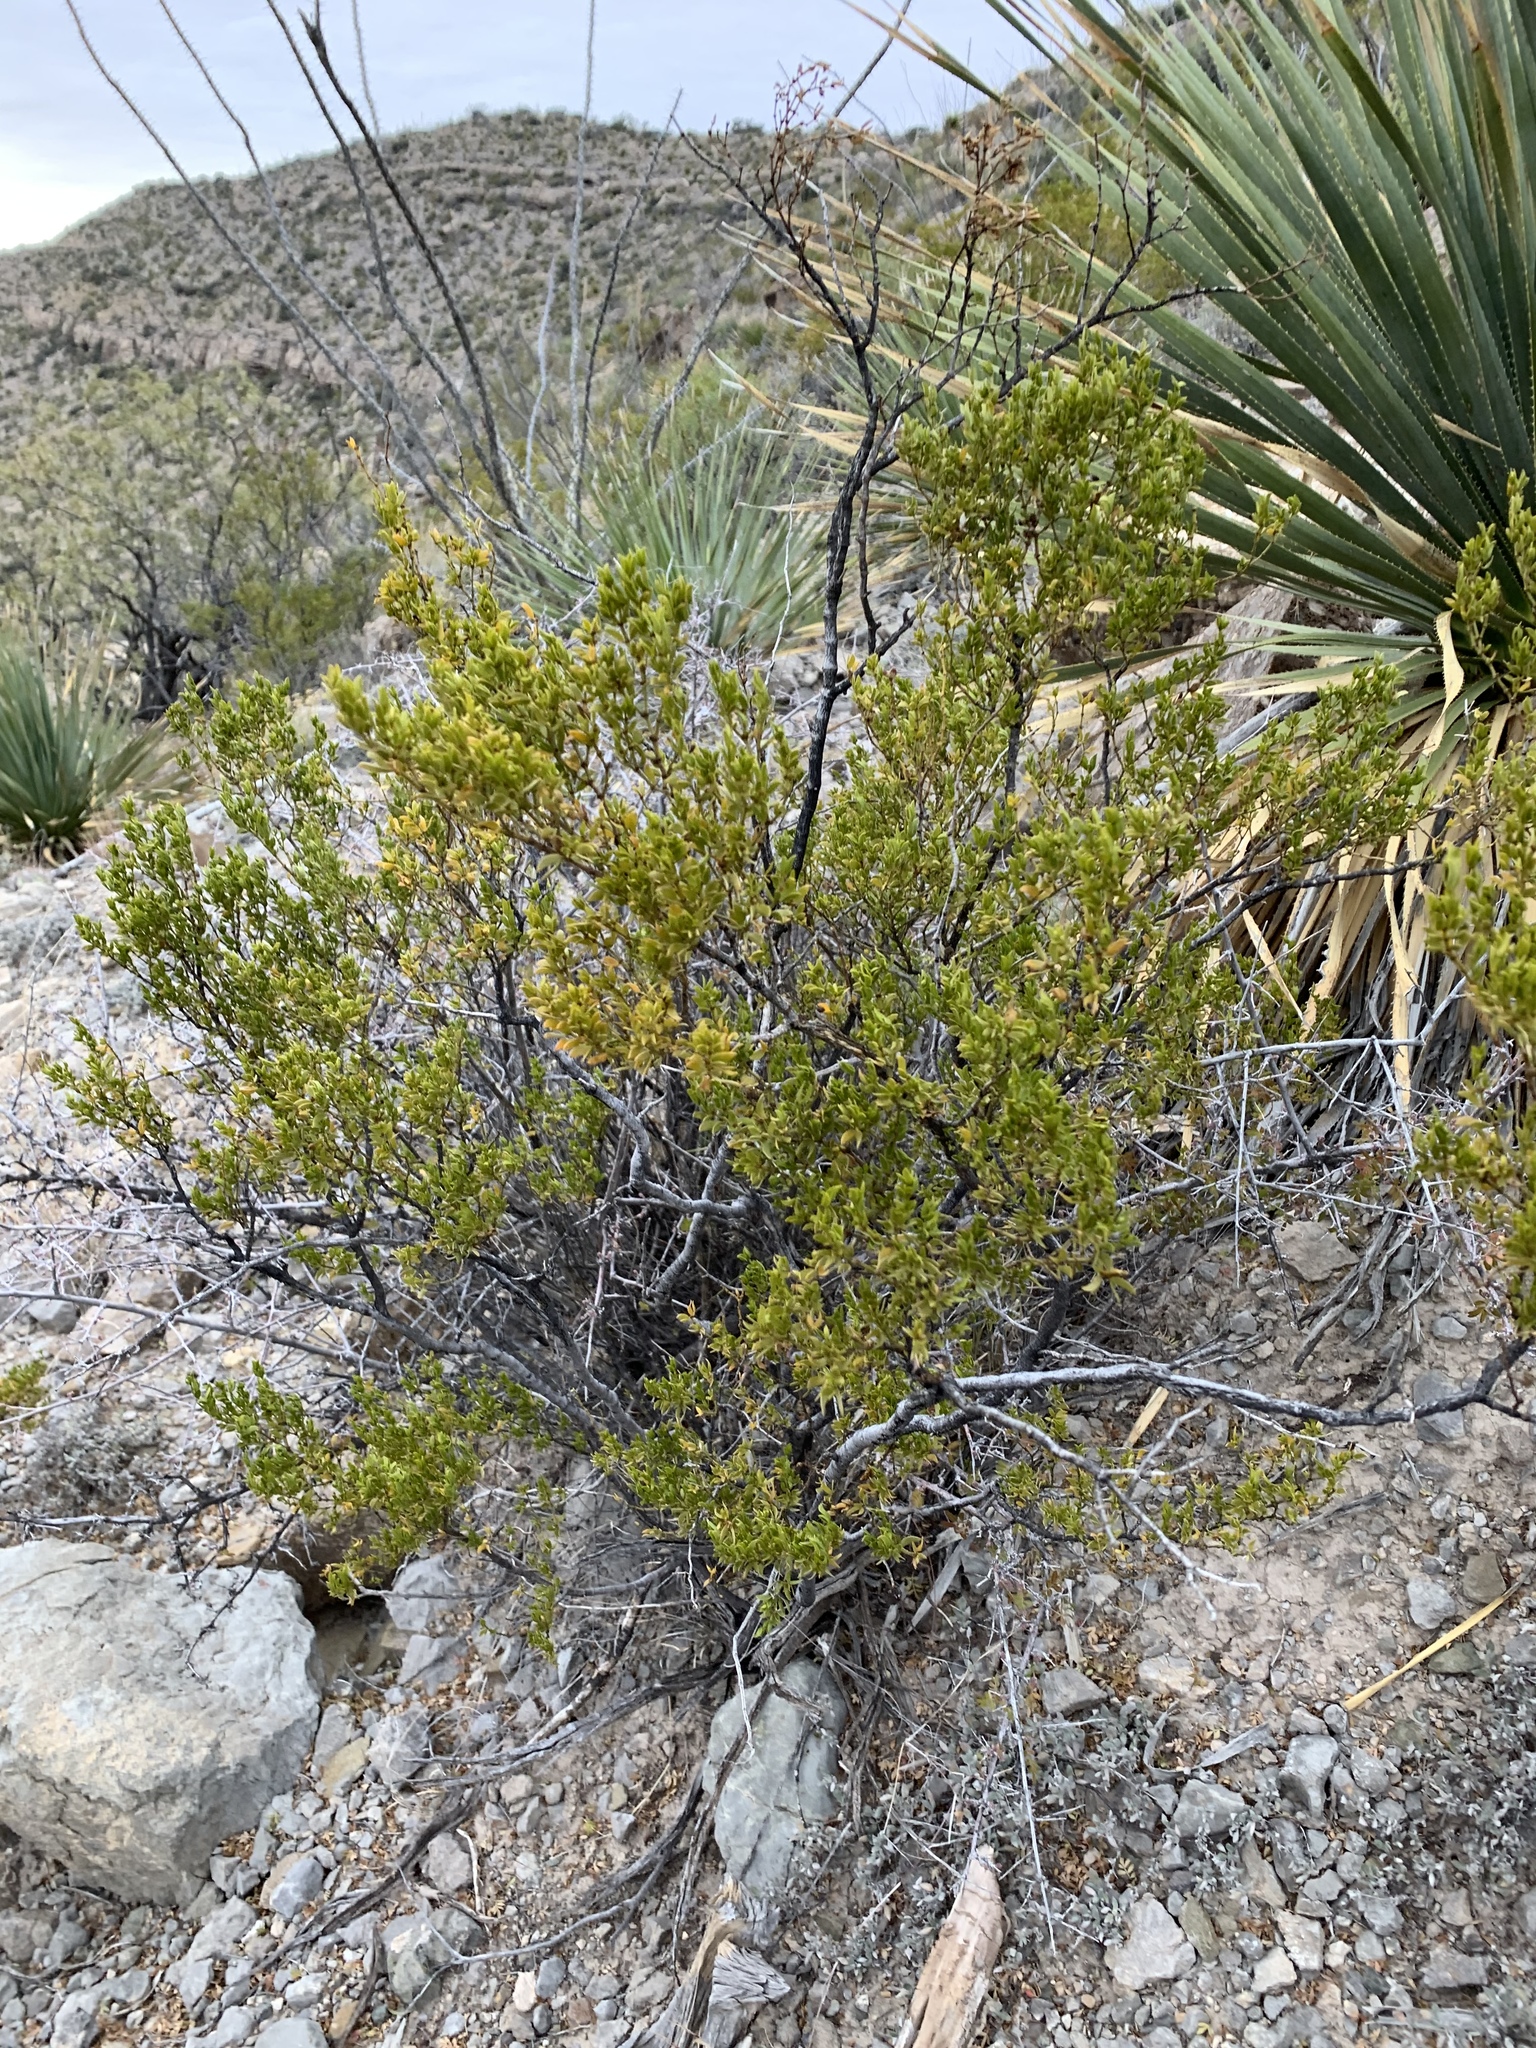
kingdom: Plantae
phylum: Tracheophyta
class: Magnoliopsida
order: Zygophyllales
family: Zygophyllaceae
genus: Larrea
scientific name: Larrea tridentata
